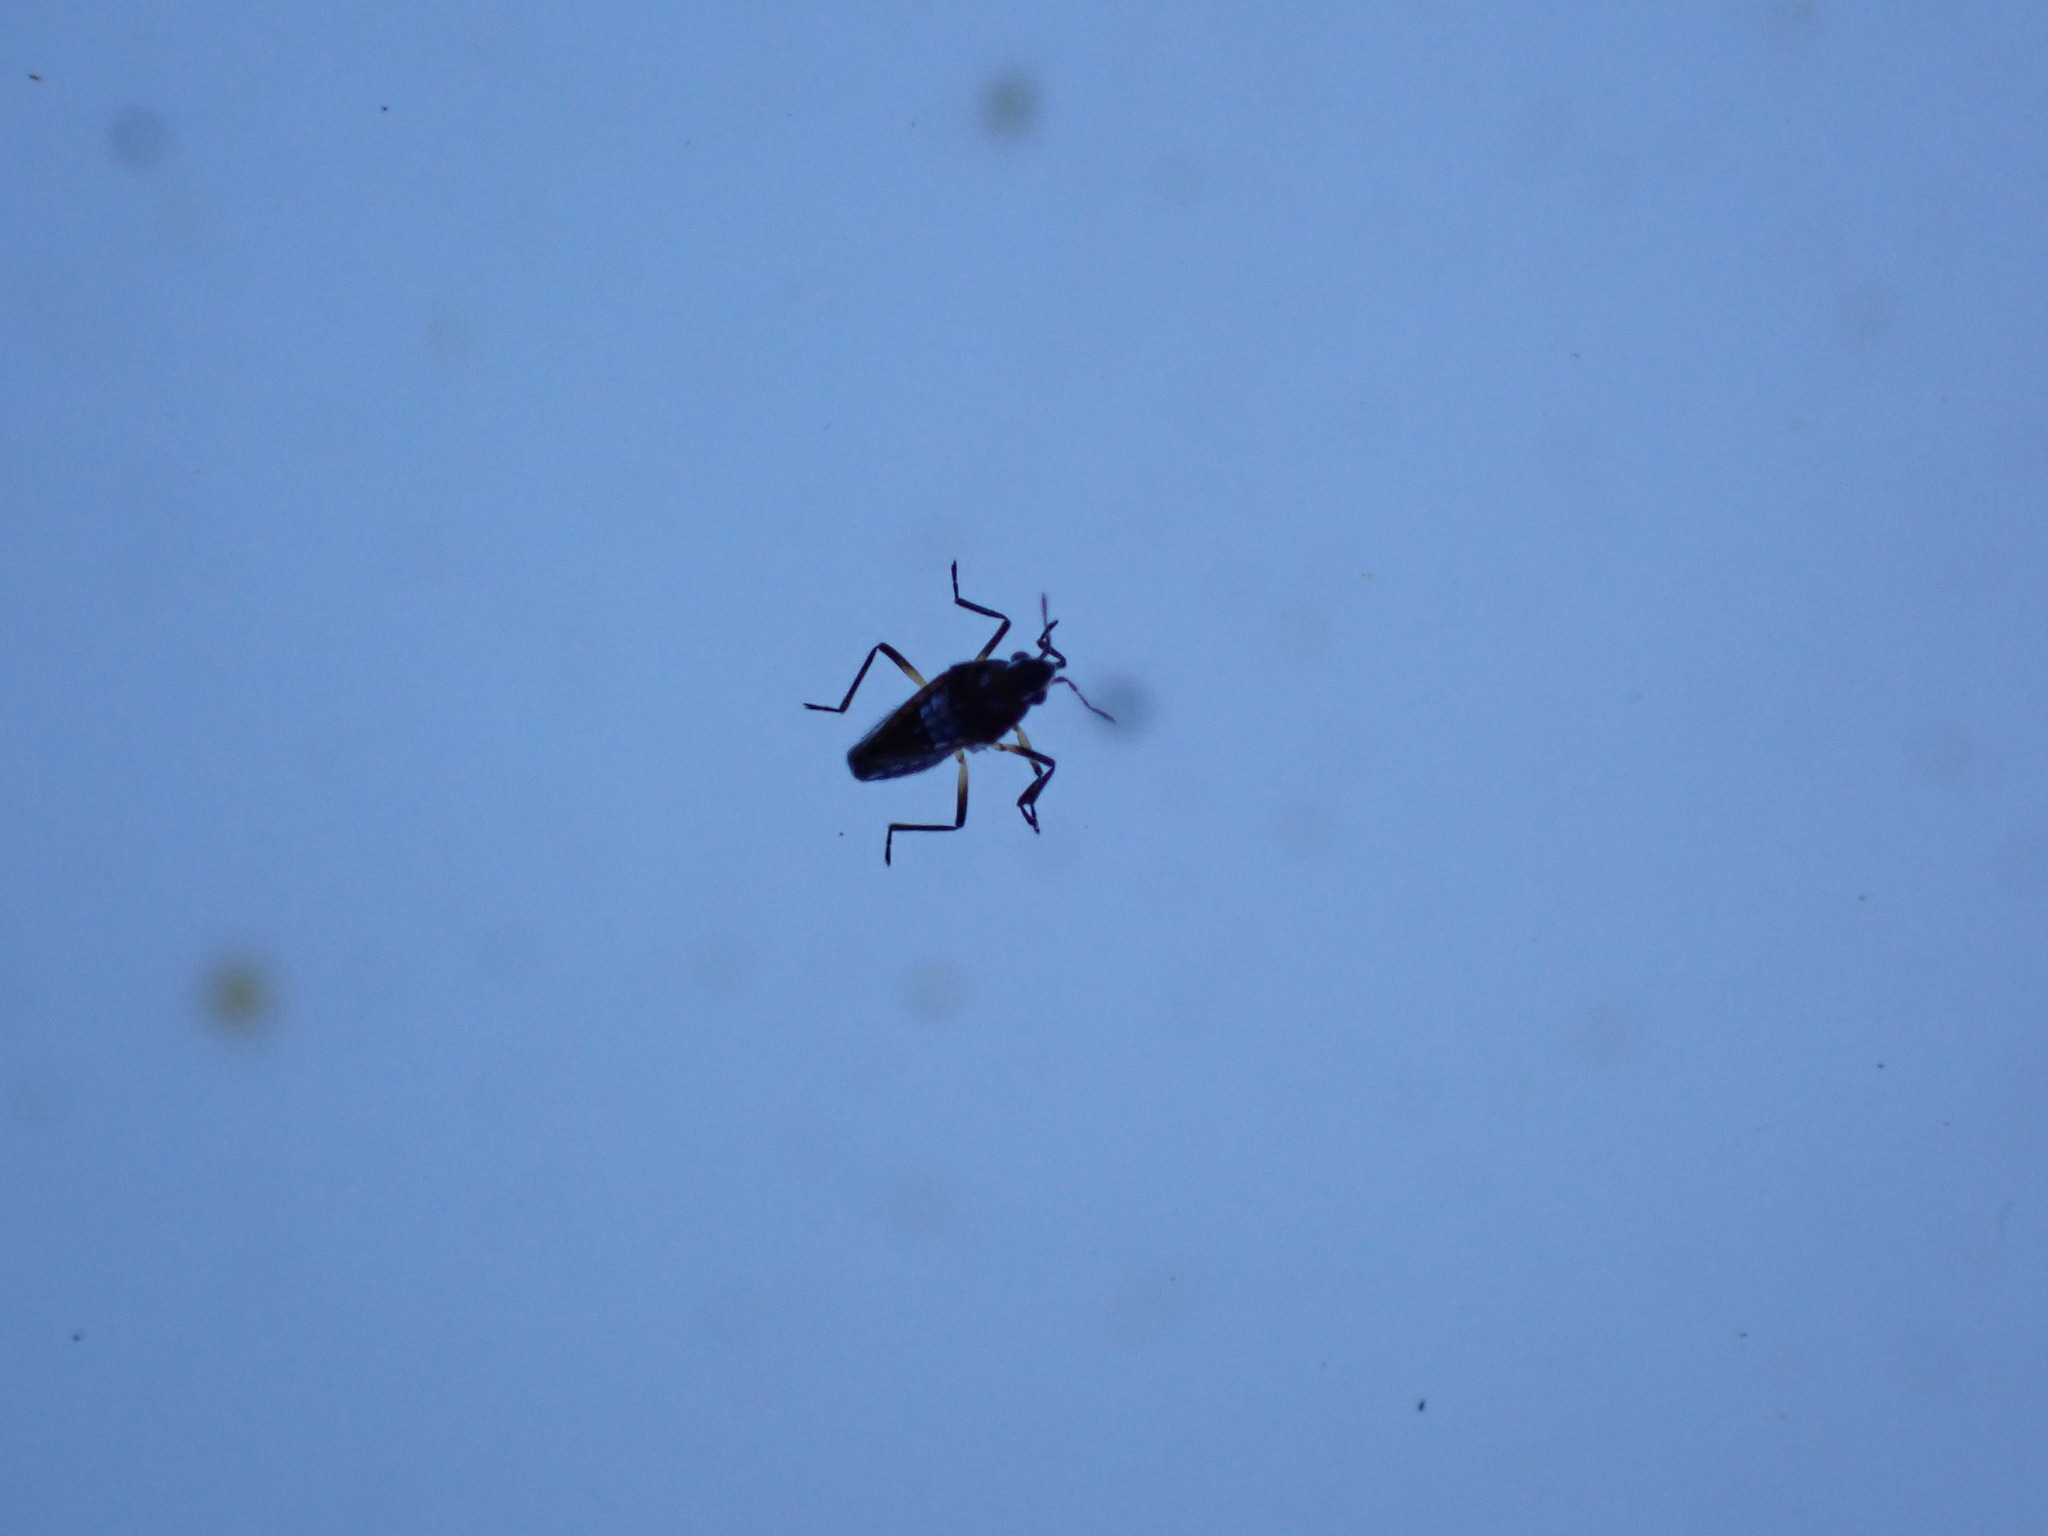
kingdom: Animalia
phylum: Arthropoda
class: Insecta
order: Hemiptera
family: Veliidae
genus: Microvelia
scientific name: Microvelia macgregori
